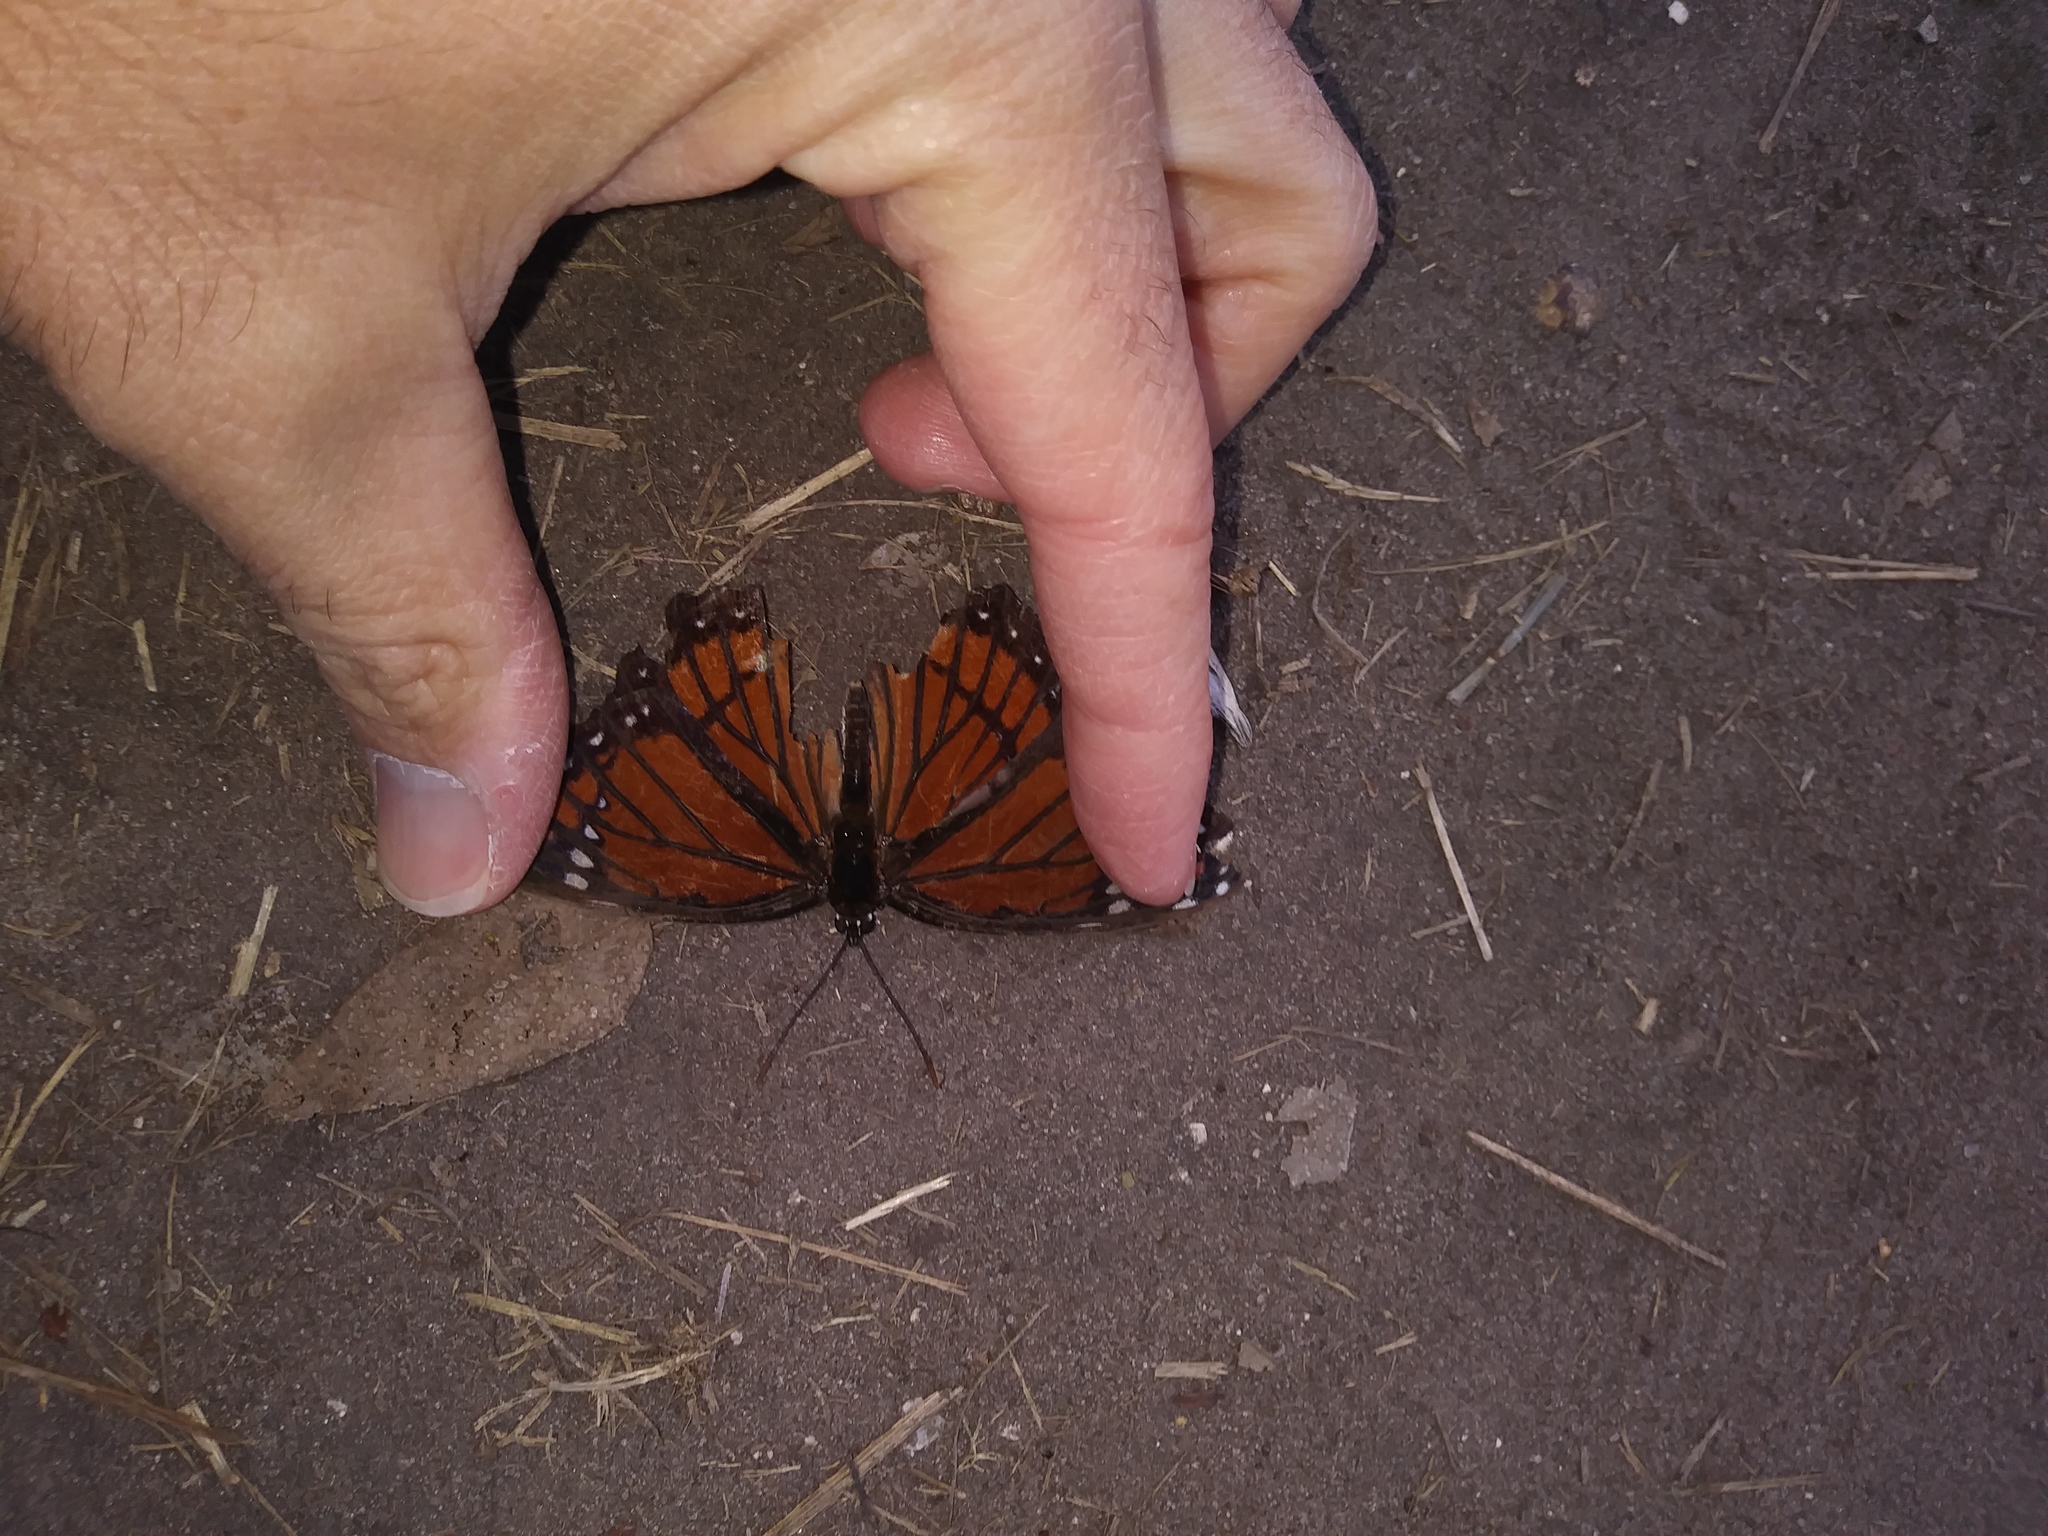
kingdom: Animalia
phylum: Arthropoda
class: Insecta
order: Lepidoptera
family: Nymphalidae
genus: Limenitis
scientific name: Limenitis archippus
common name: Viceroy
